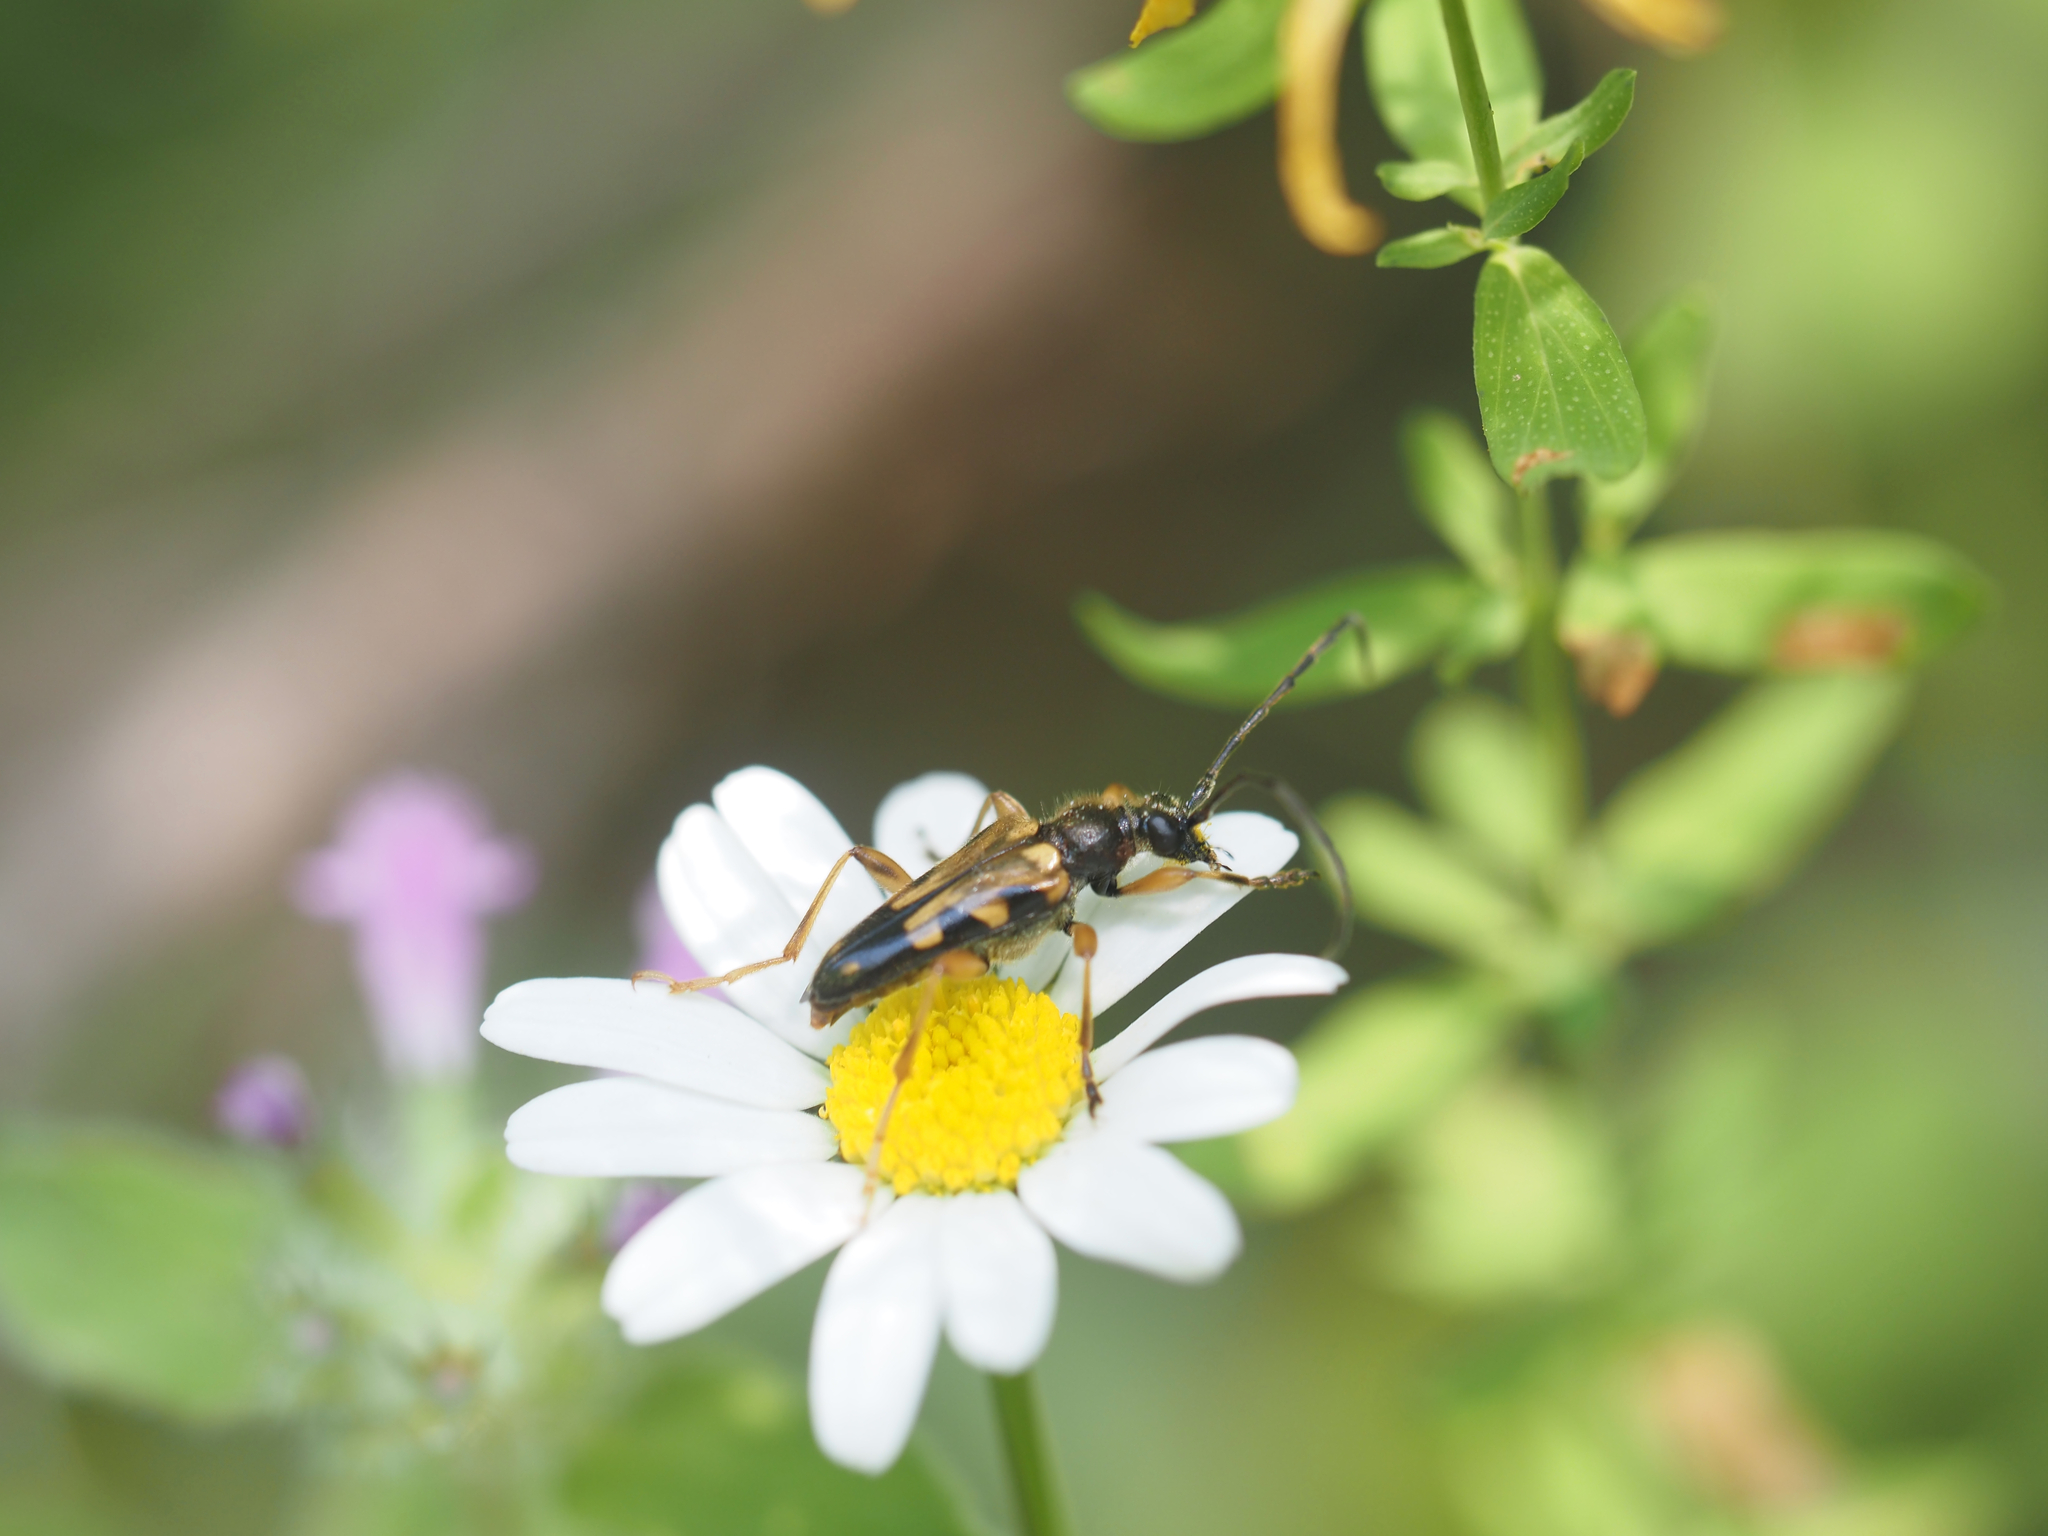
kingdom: Animalia
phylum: Arthropoda
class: Insecta
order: Coleoptera
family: Cerambycidae
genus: Xestoleptura
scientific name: Xestoleptura crassipes
